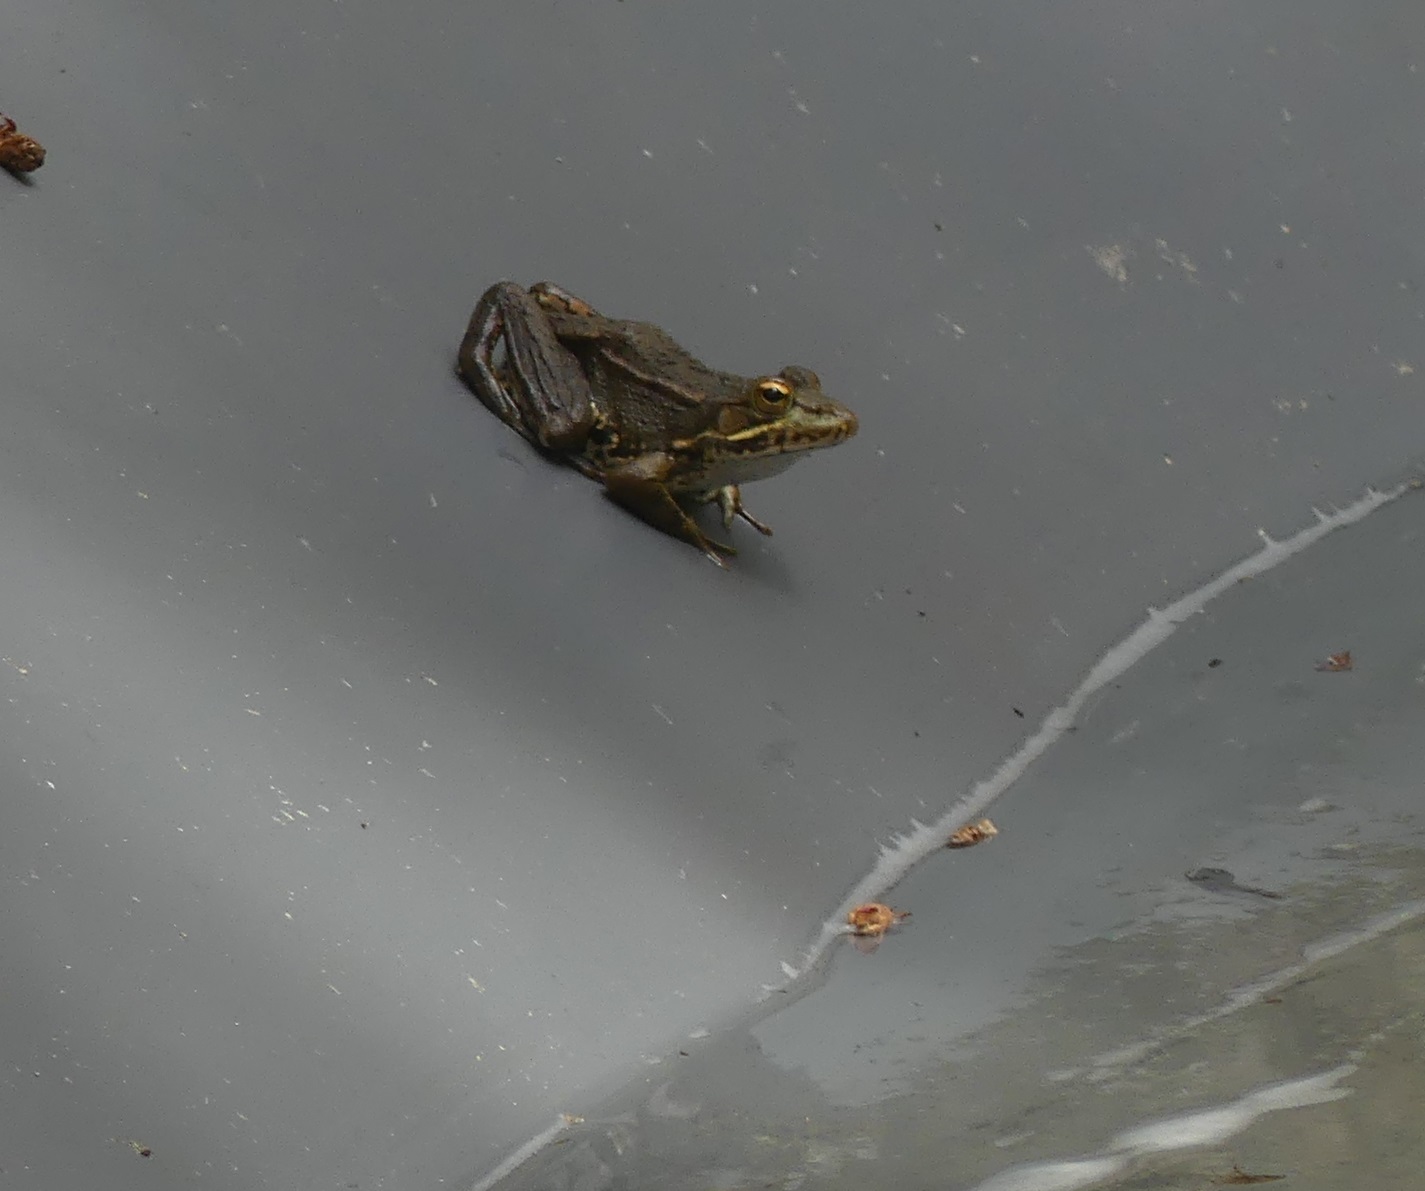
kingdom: Animalia
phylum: Chordata
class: Amphibia
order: Anura
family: Ranidae
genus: Pelophylax
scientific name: Pelophylax perezi
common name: Perez's frog
